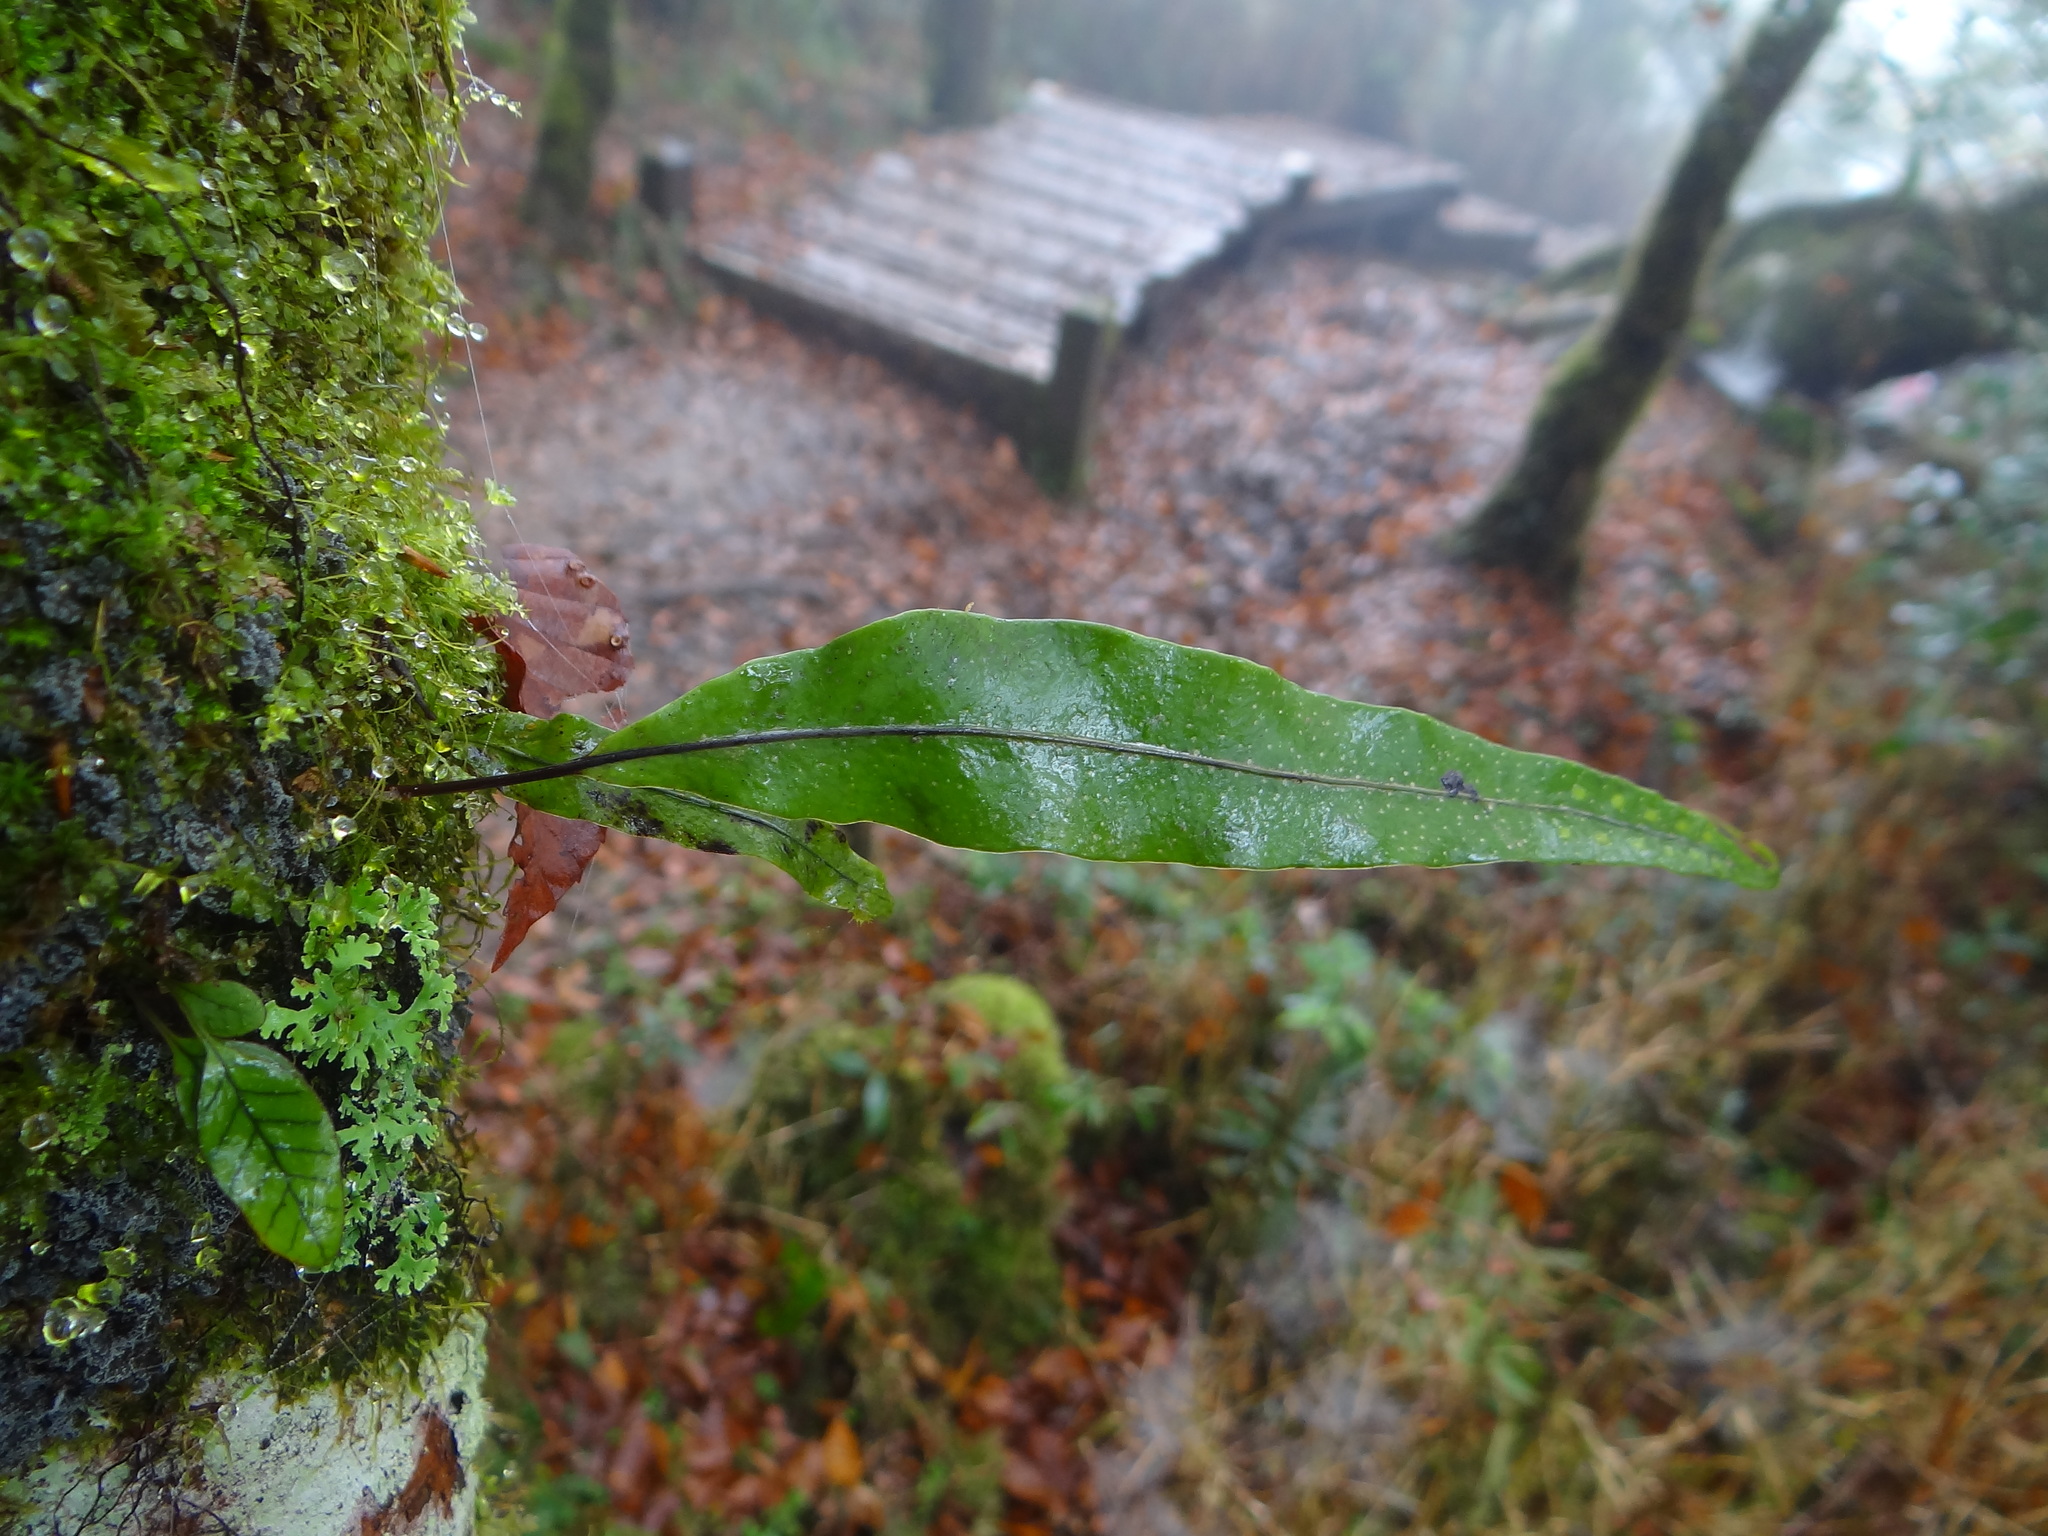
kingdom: Plantae
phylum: Tracheophyta
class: Polypodiopsida
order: Polypodiales
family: Polypodiaceae
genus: Lepisorus
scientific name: Lepisorus thunbergianus
